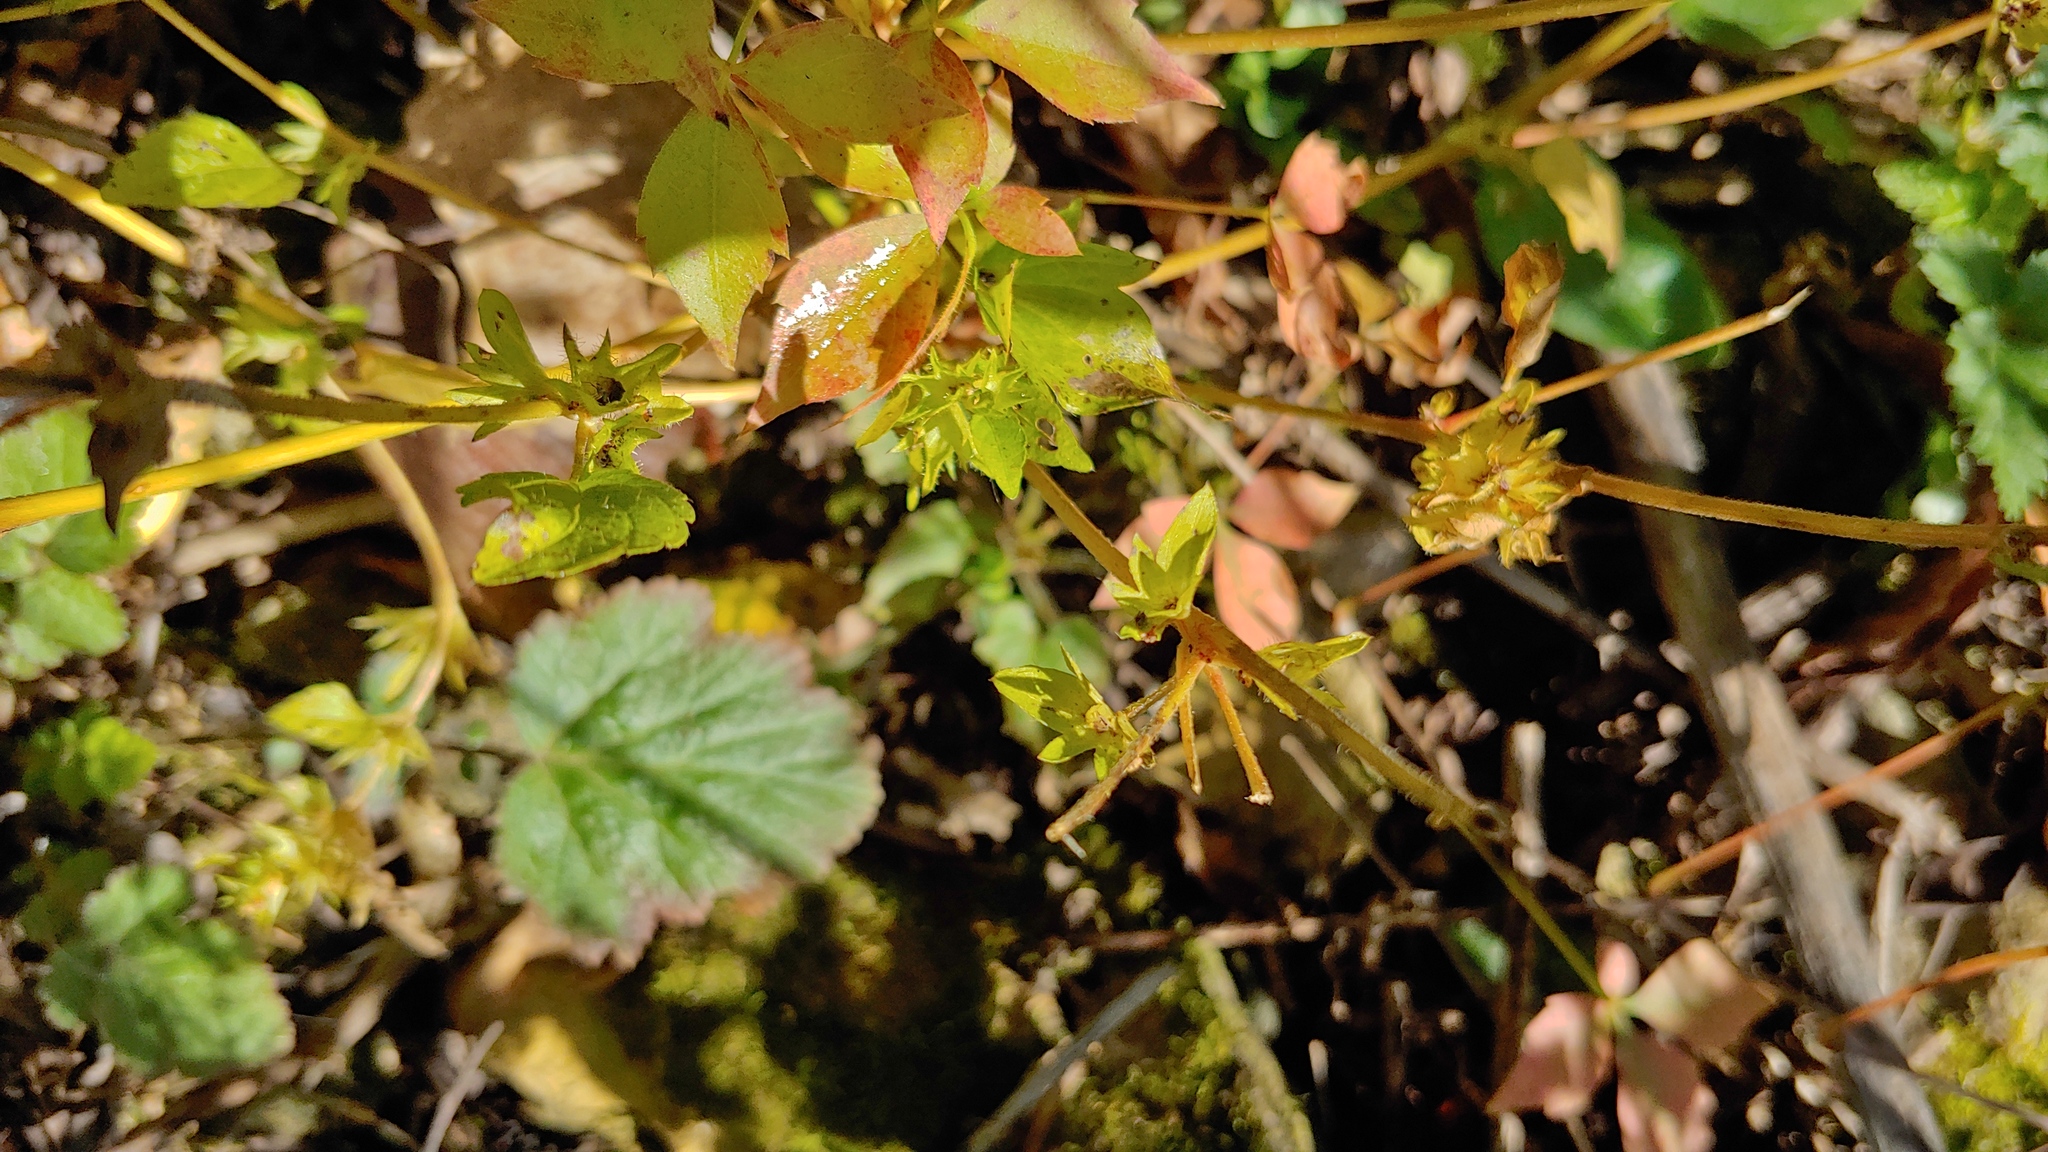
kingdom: Plantae
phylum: Tracheophyta
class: Magnoliopsida
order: Malpighiales
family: Euphorbiaceae
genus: Acalypha
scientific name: Acalypha rhomboidea
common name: Rhombic copperleaf
